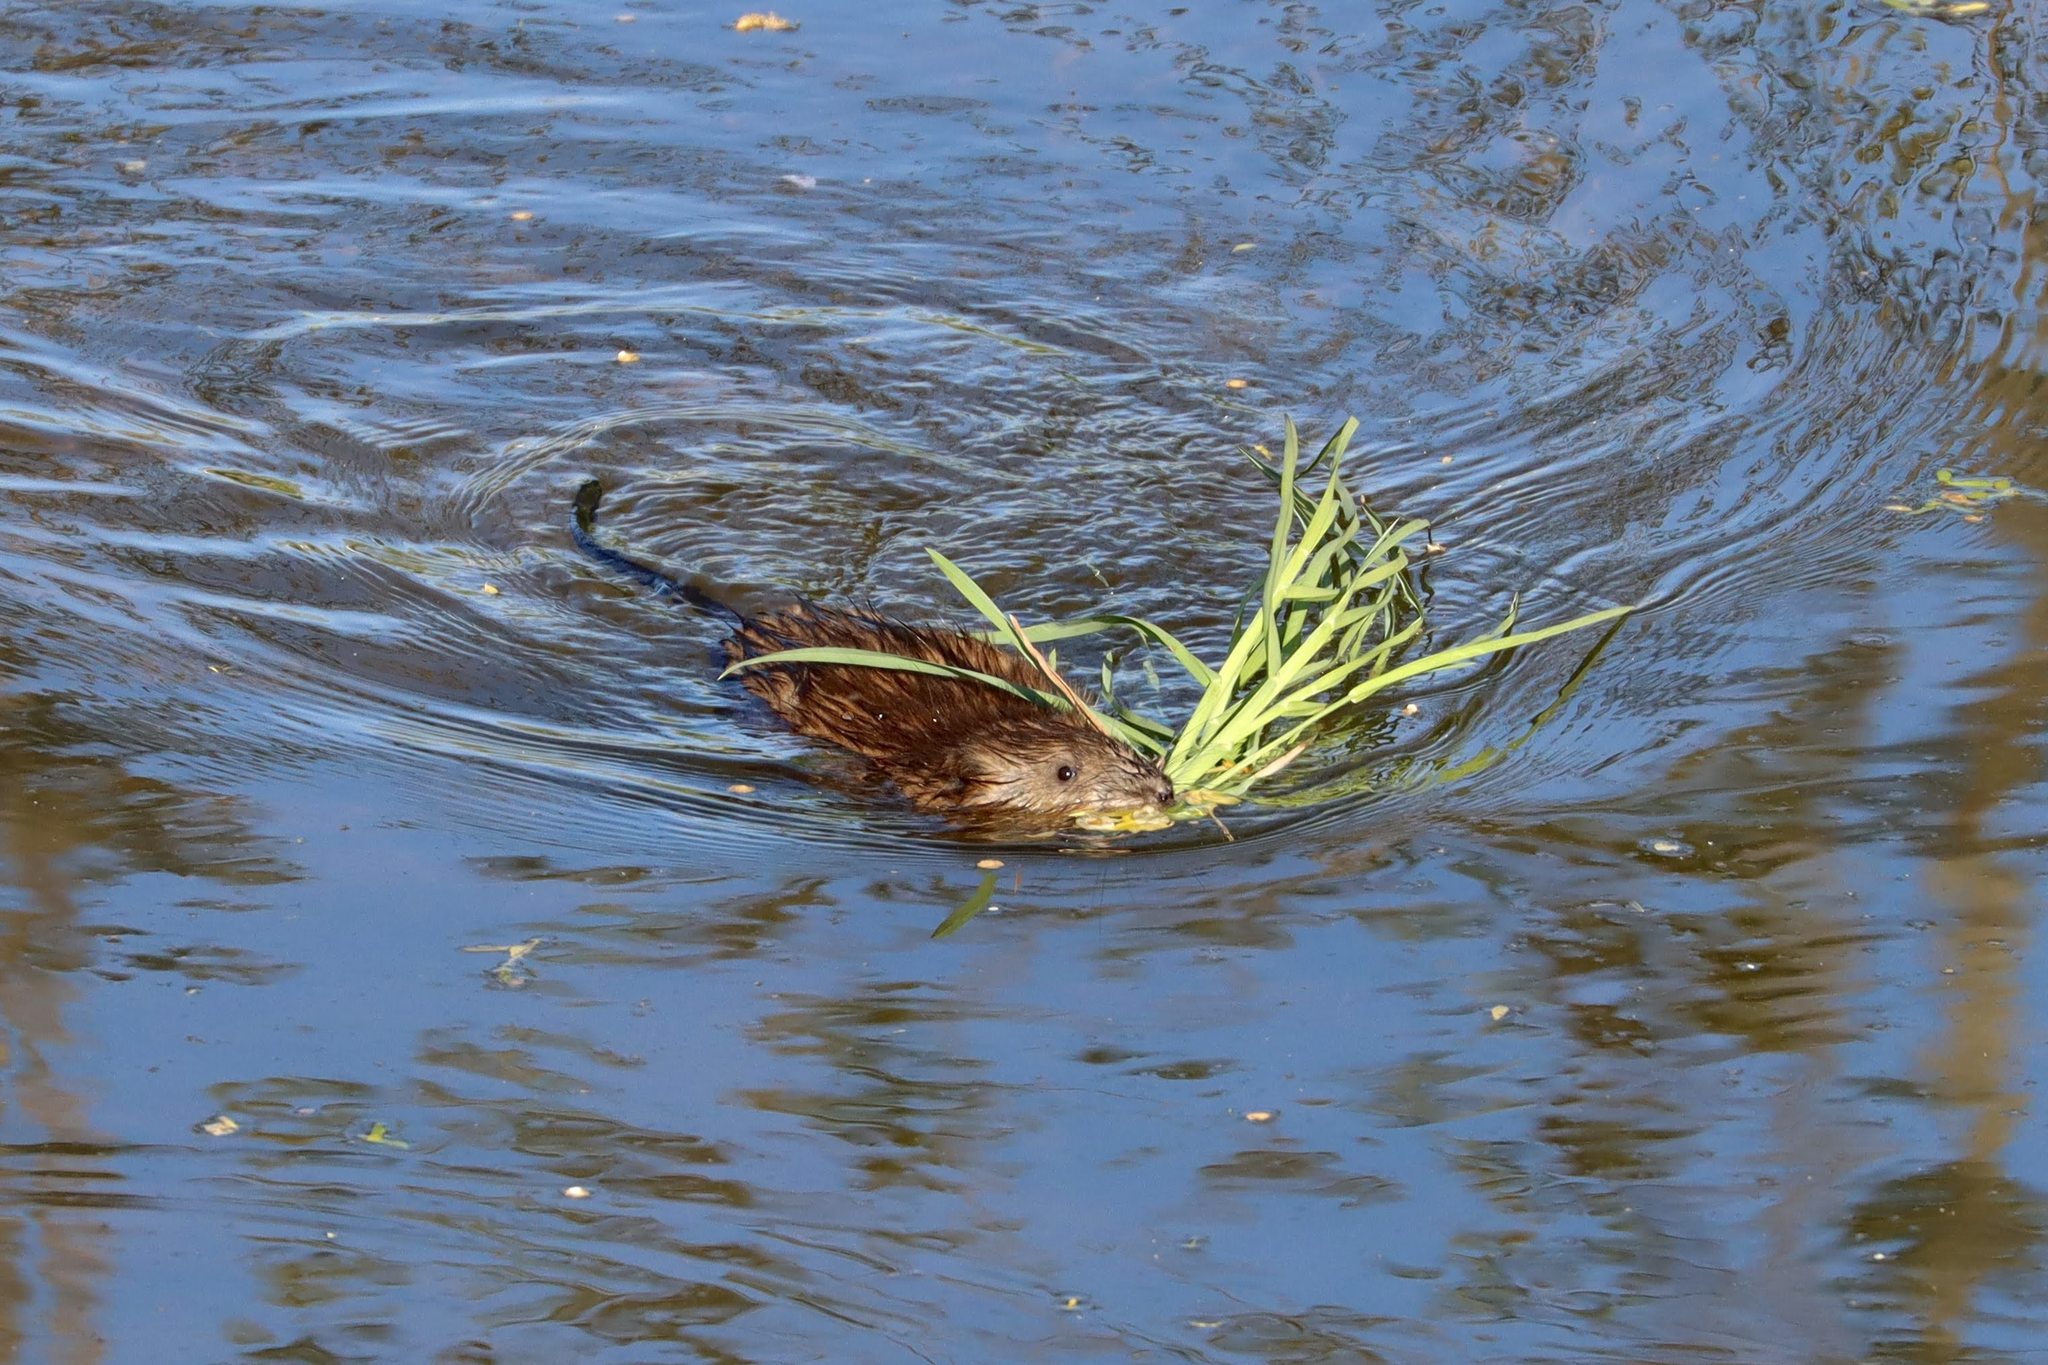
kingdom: Animalia
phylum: Chordata
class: Mammalia
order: Rodentia
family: Cricetidae
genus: Ondatra
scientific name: Ondatra zibethicus
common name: Muskrat
